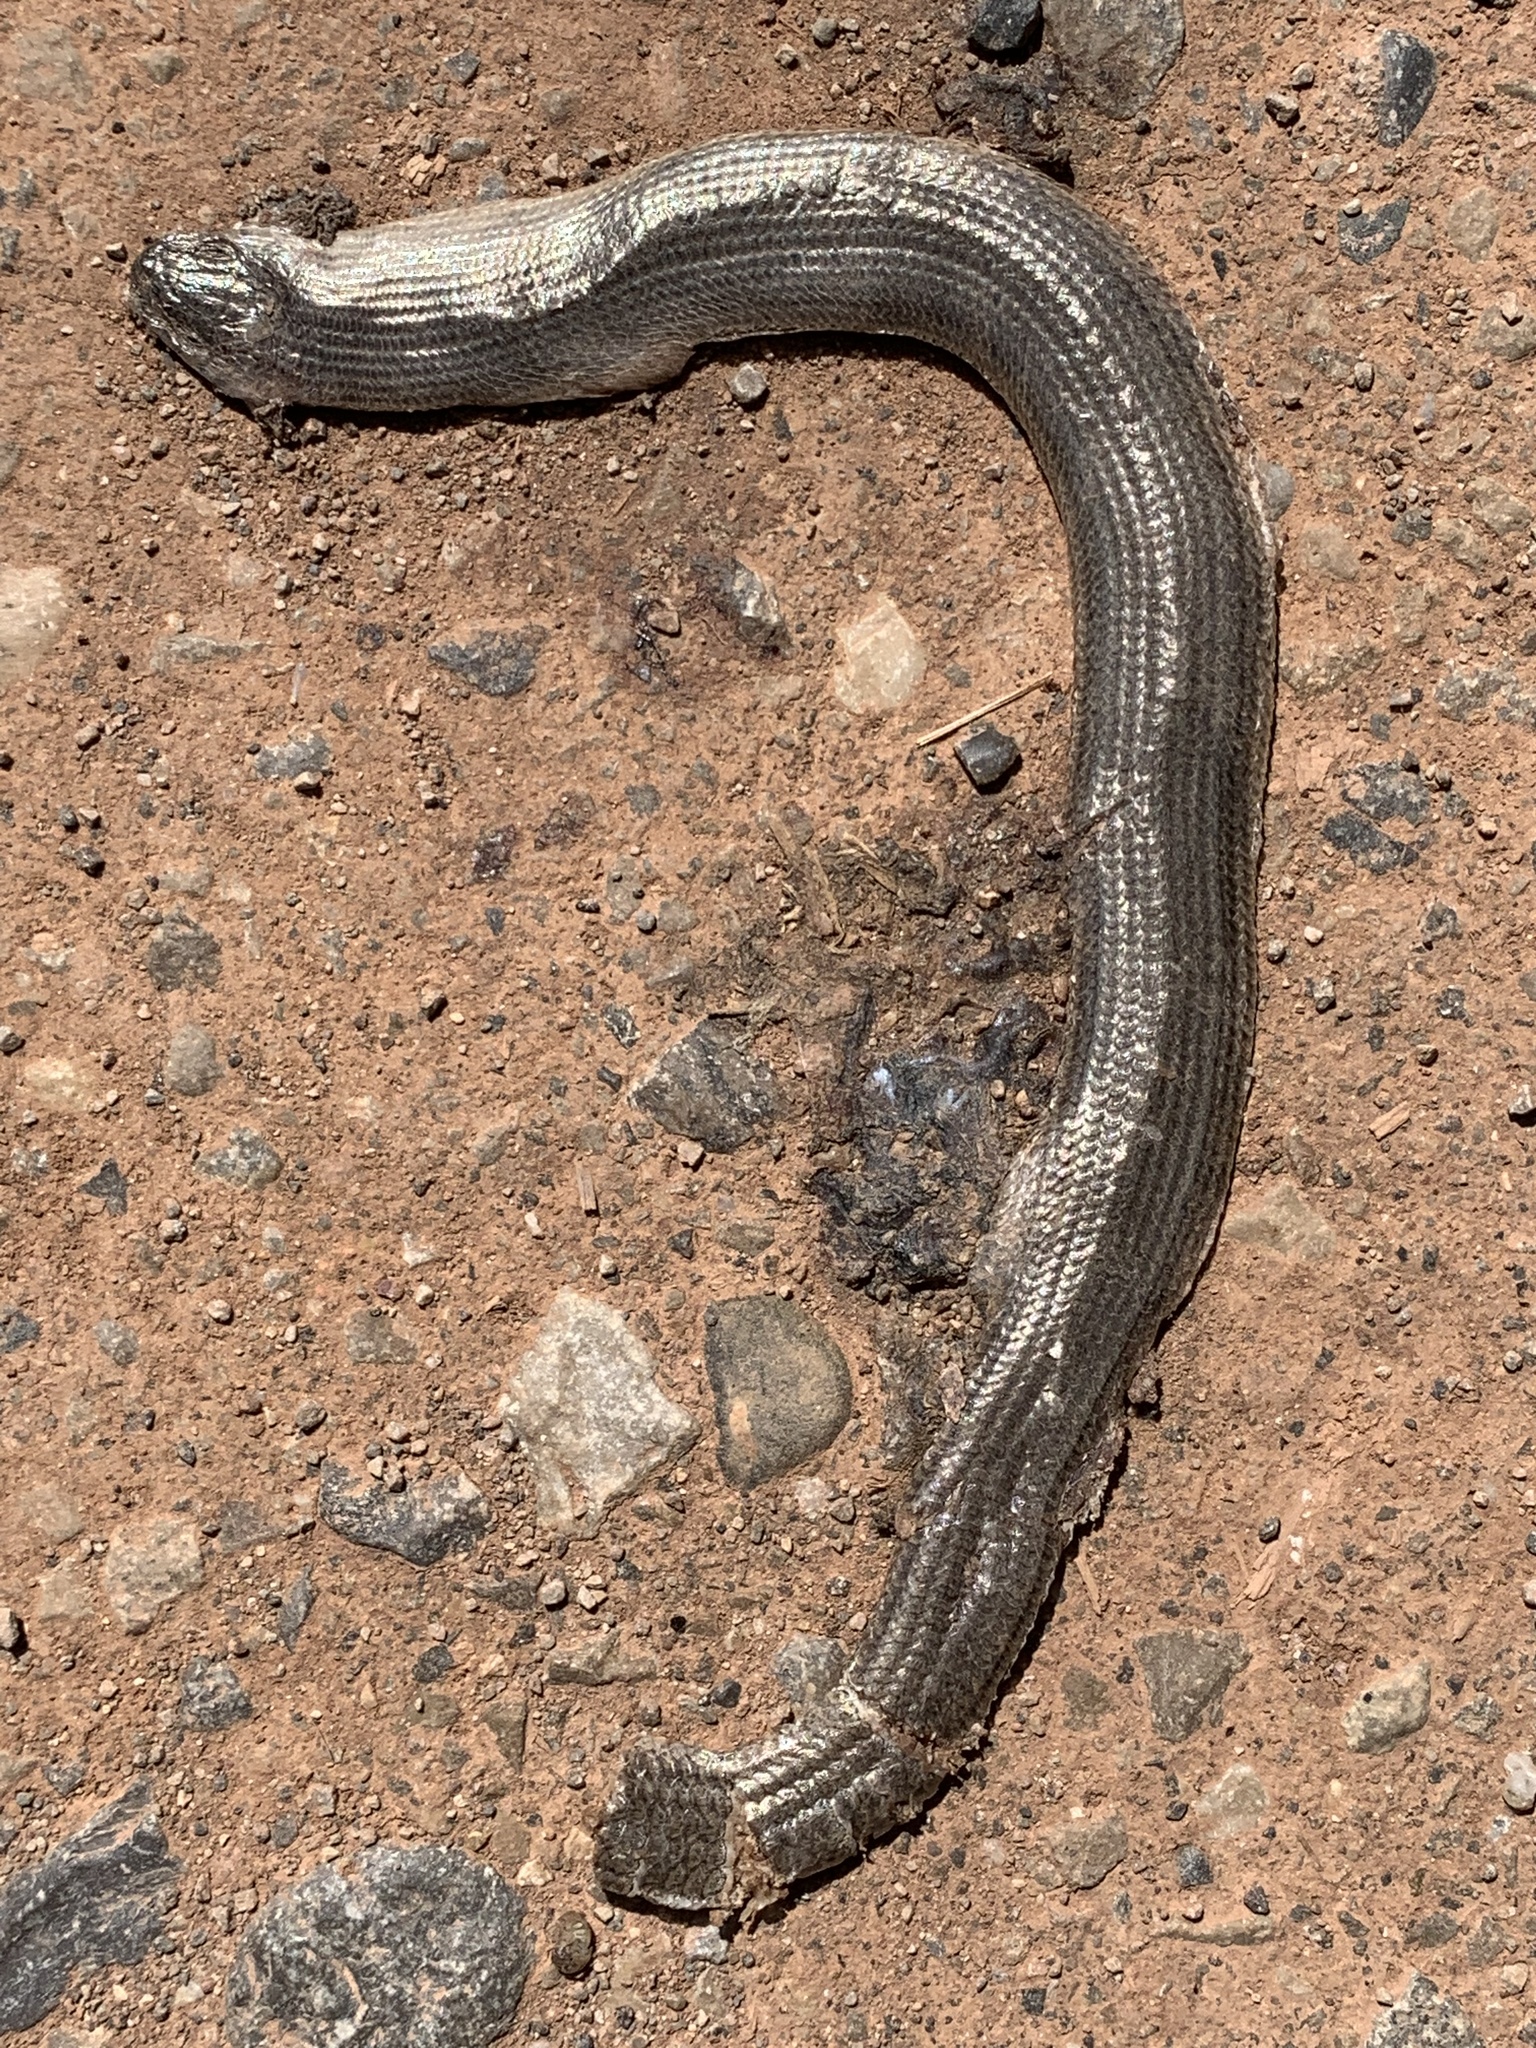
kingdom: Animalia
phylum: Chordata
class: Squamata
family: Anguidae
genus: Anguis
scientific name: Anguis fragilis
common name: Slow worm
